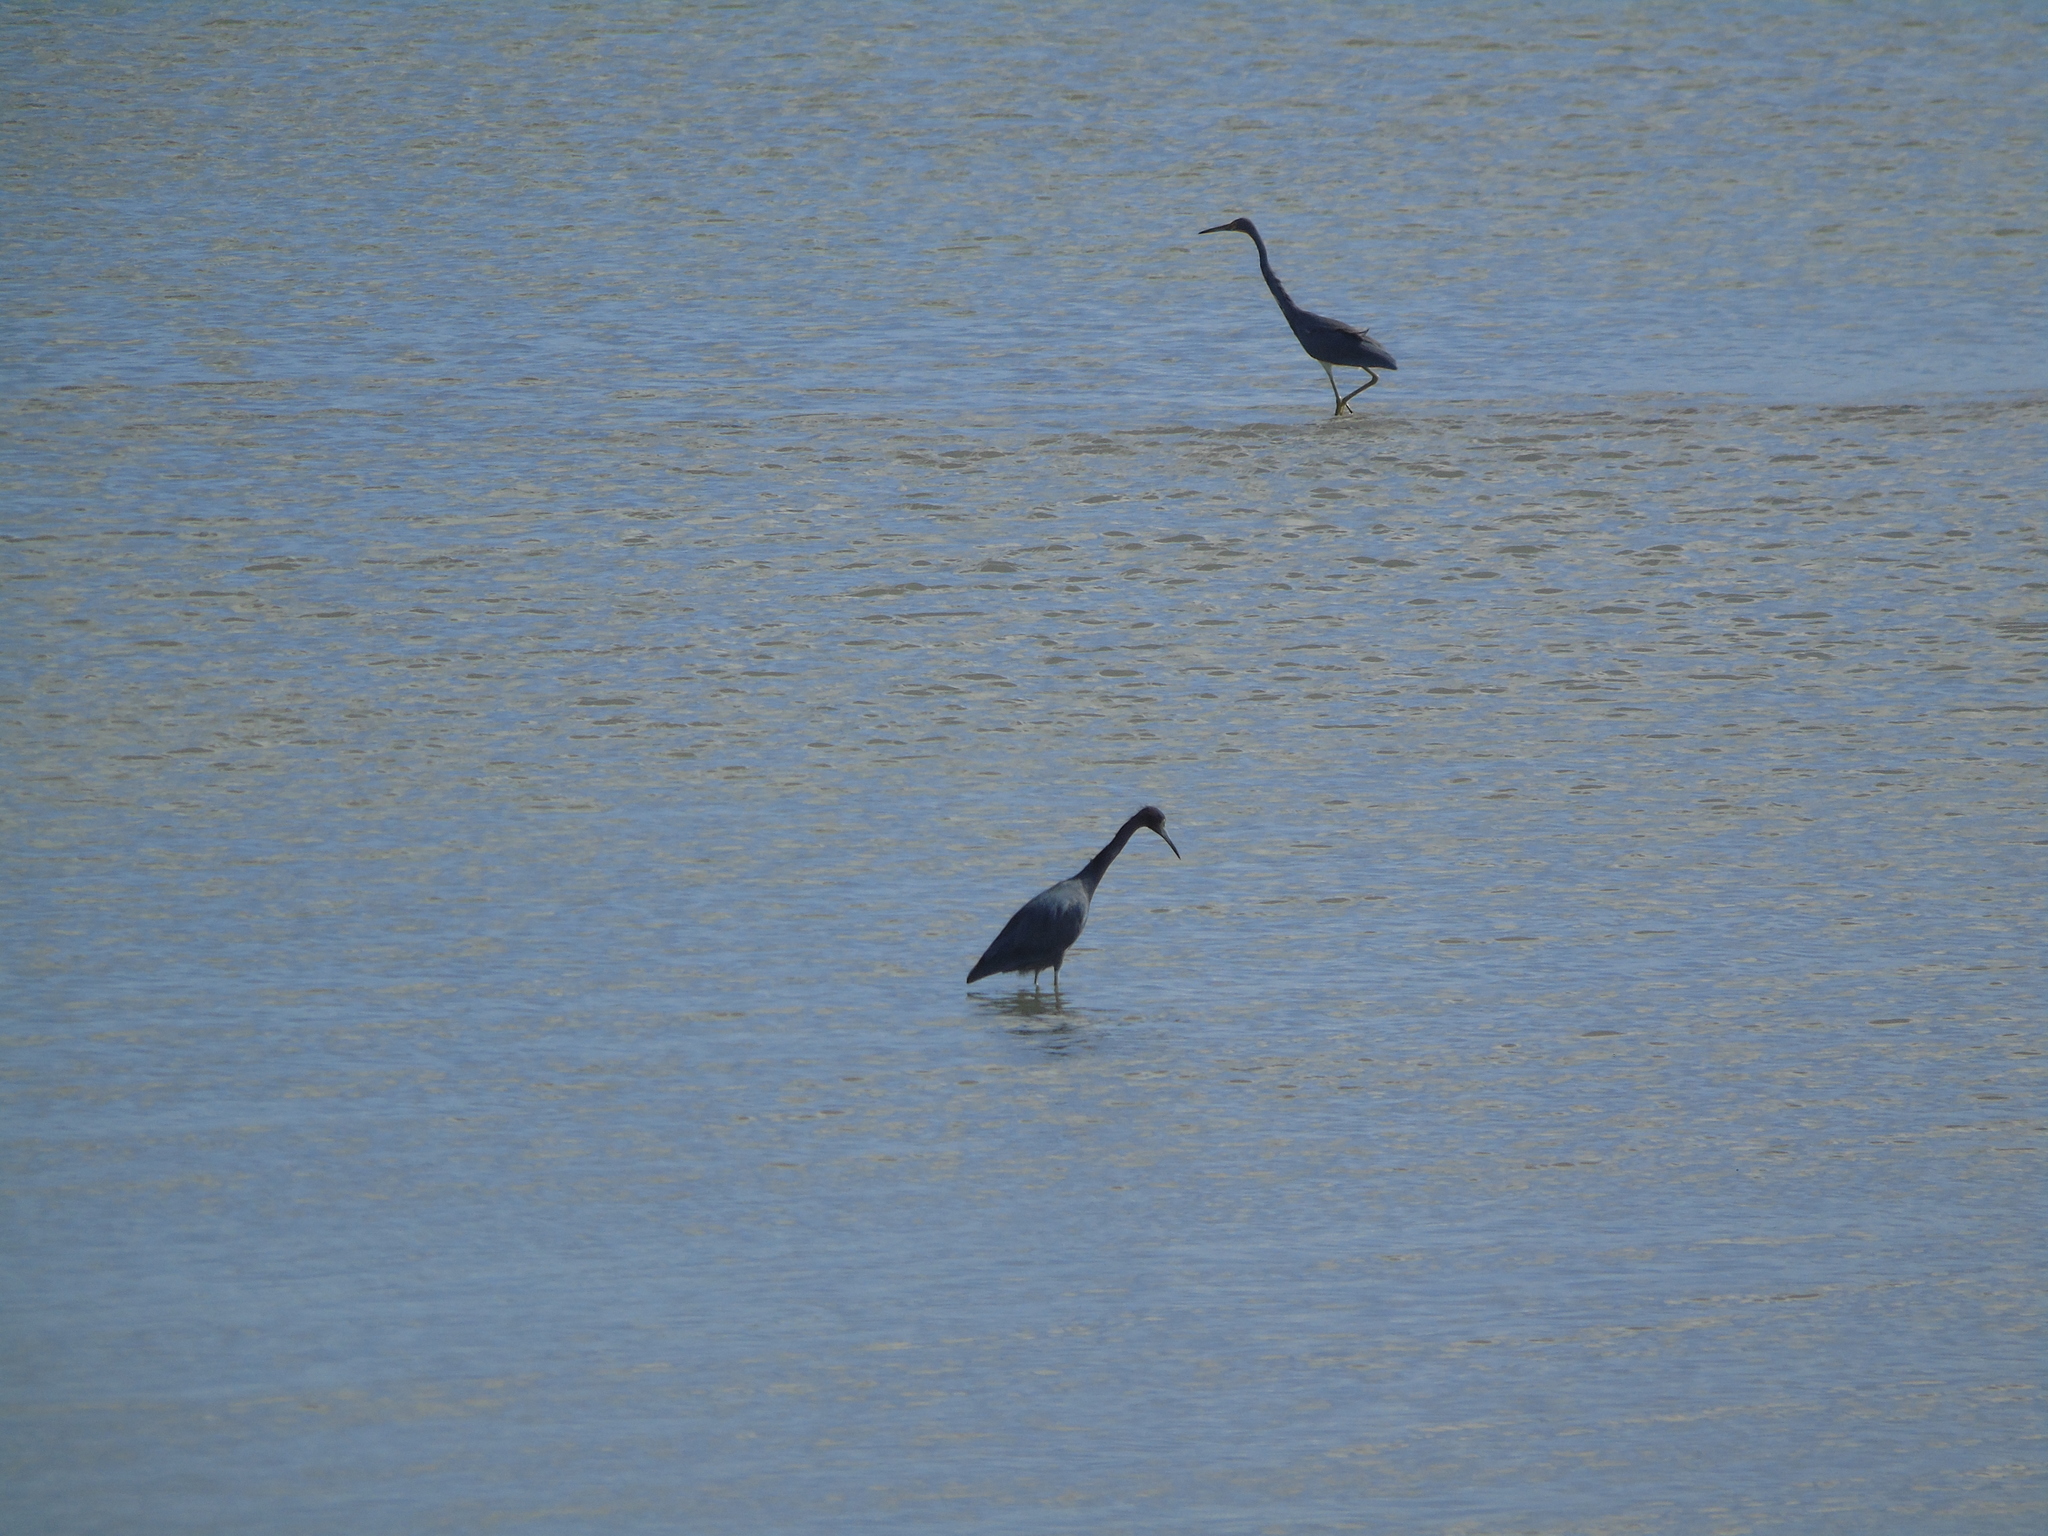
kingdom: Animalia
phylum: Chordata
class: Aves
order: Pelecaniformes
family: Ardeidae
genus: Egretta
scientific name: Egretta caerulea
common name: Little blue heron
